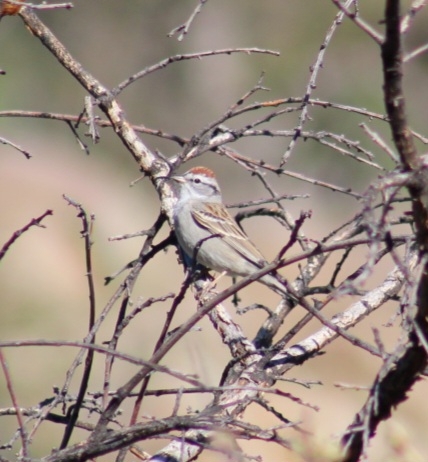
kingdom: Animalia
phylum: Chordata
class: Aves
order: Passeriformes
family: Passerellidae
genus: Spizella
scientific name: Spizella passerina
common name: Chipping sparrow
